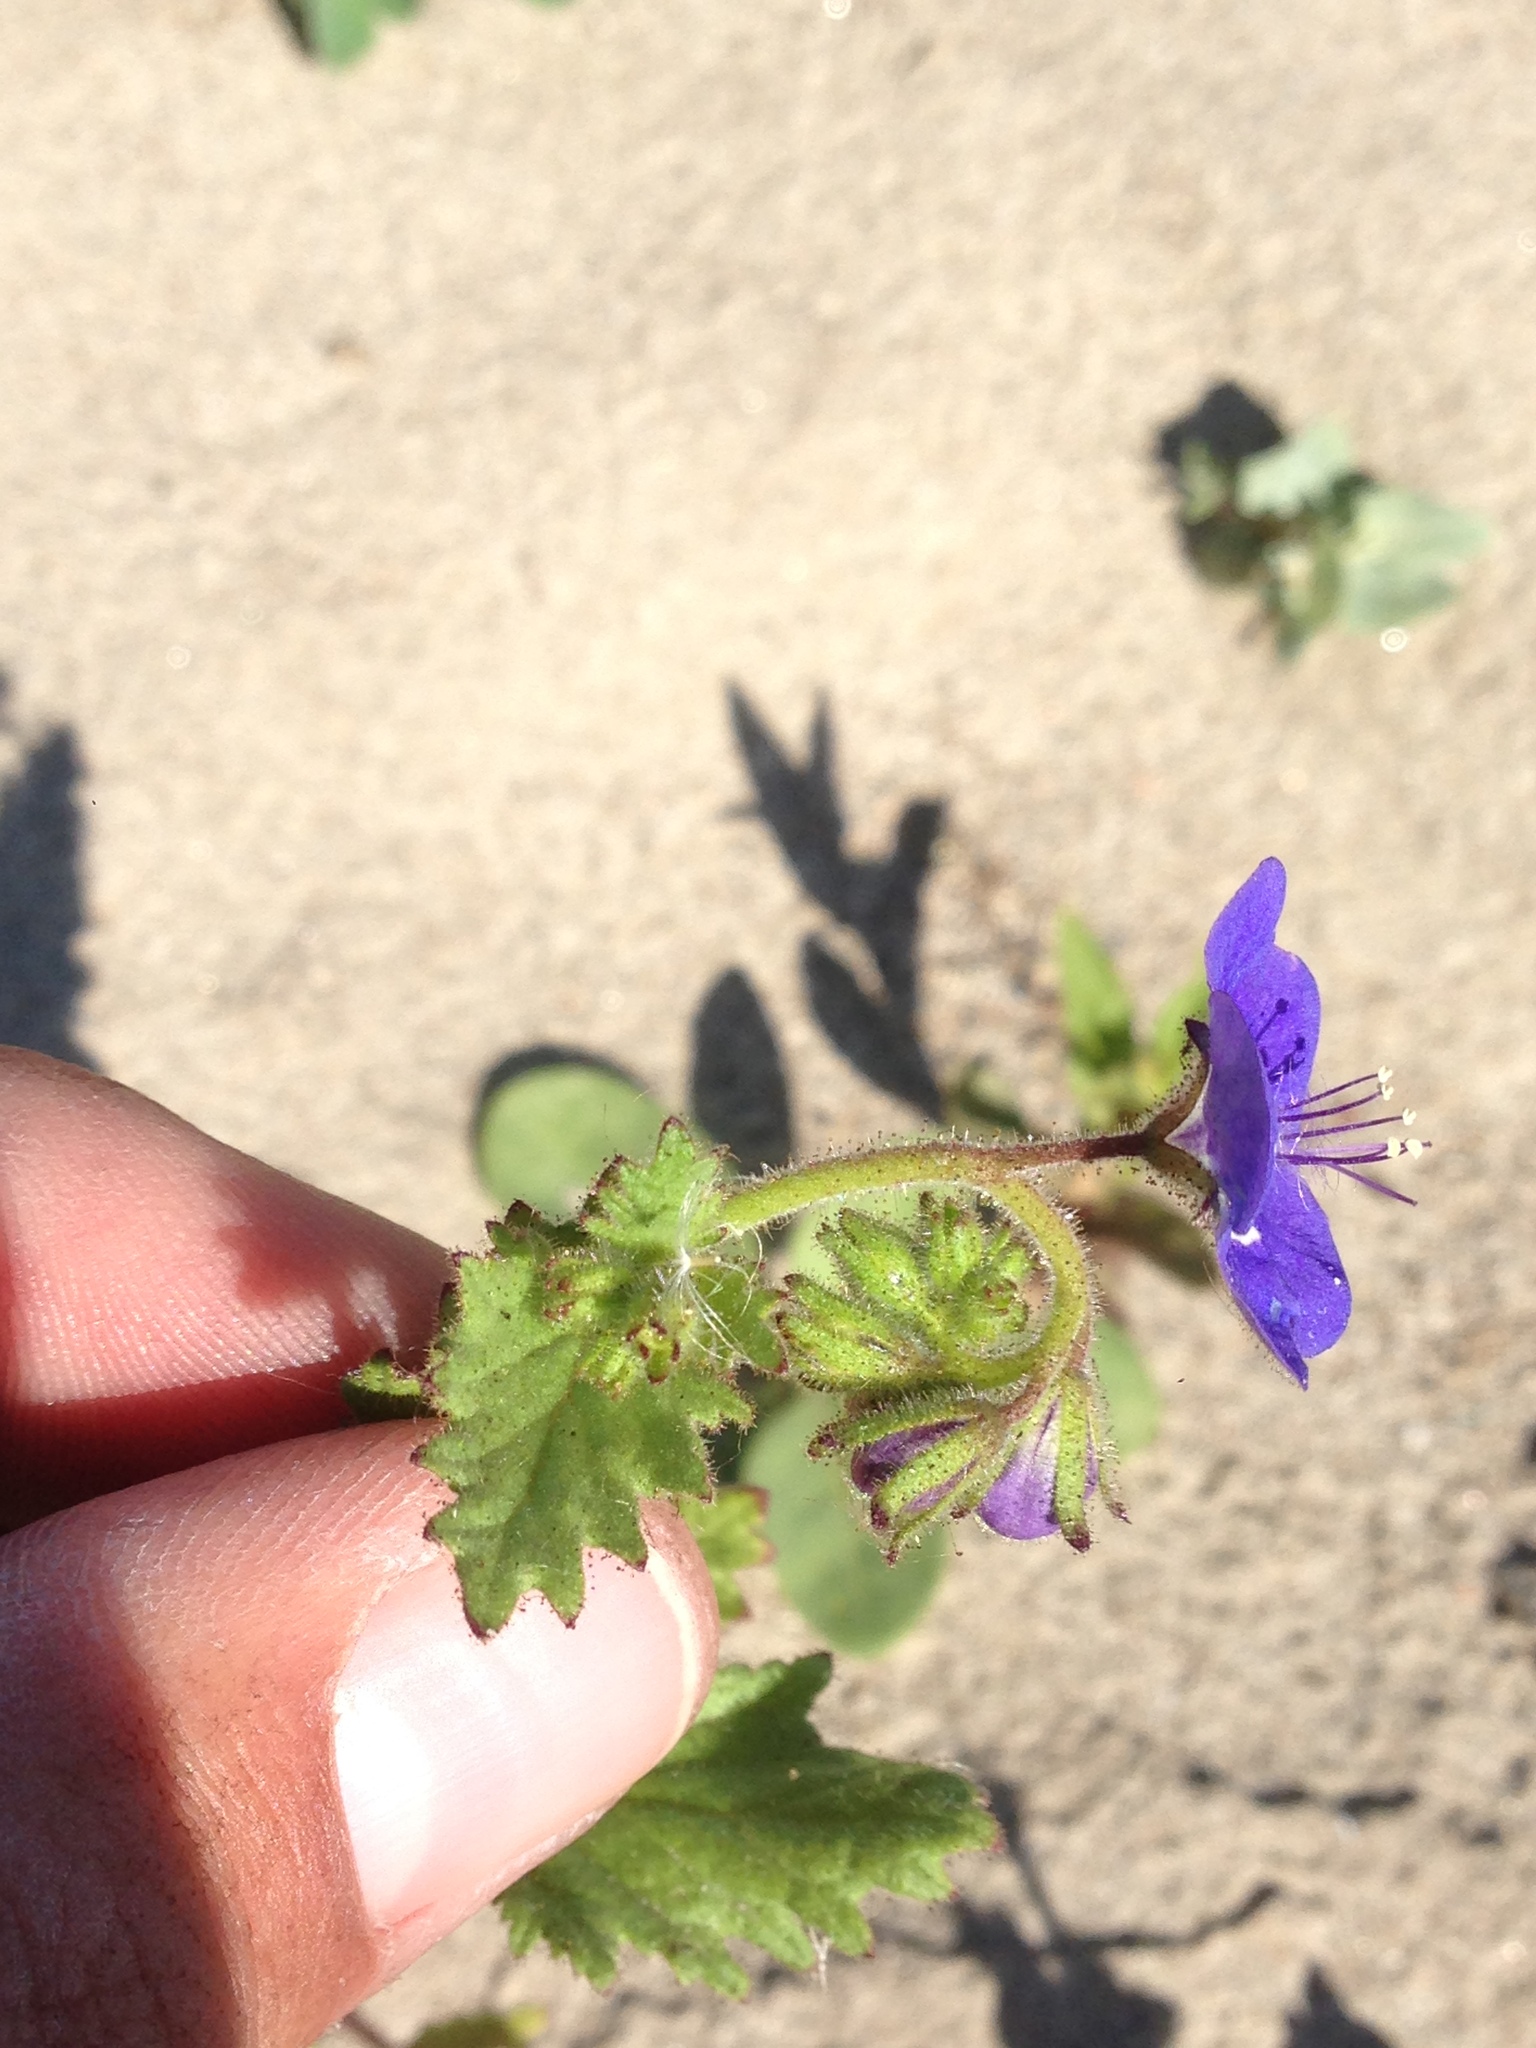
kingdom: Plantae
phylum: Tracheophyta
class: Magnoliopsida
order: Boraginales
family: Hydrophyllaceae
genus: Phacelia
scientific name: Phacelia viscida
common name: Sticky phacelia
